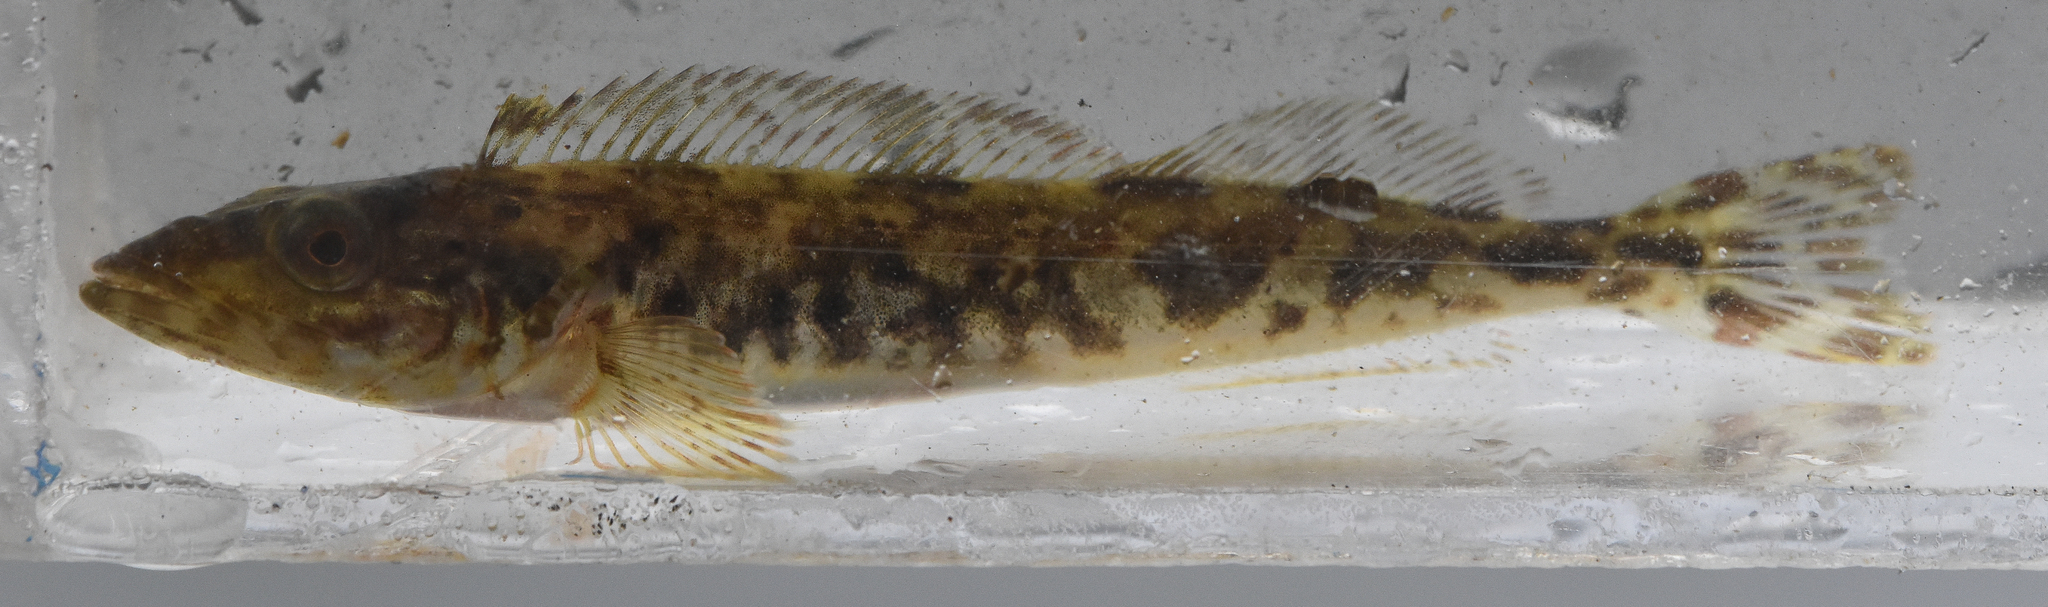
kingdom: Animalia
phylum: Chordata
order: Scorpaeniformes
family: Hexagrammidae
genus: Ophiodon
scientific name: Ophiodon elongatus
